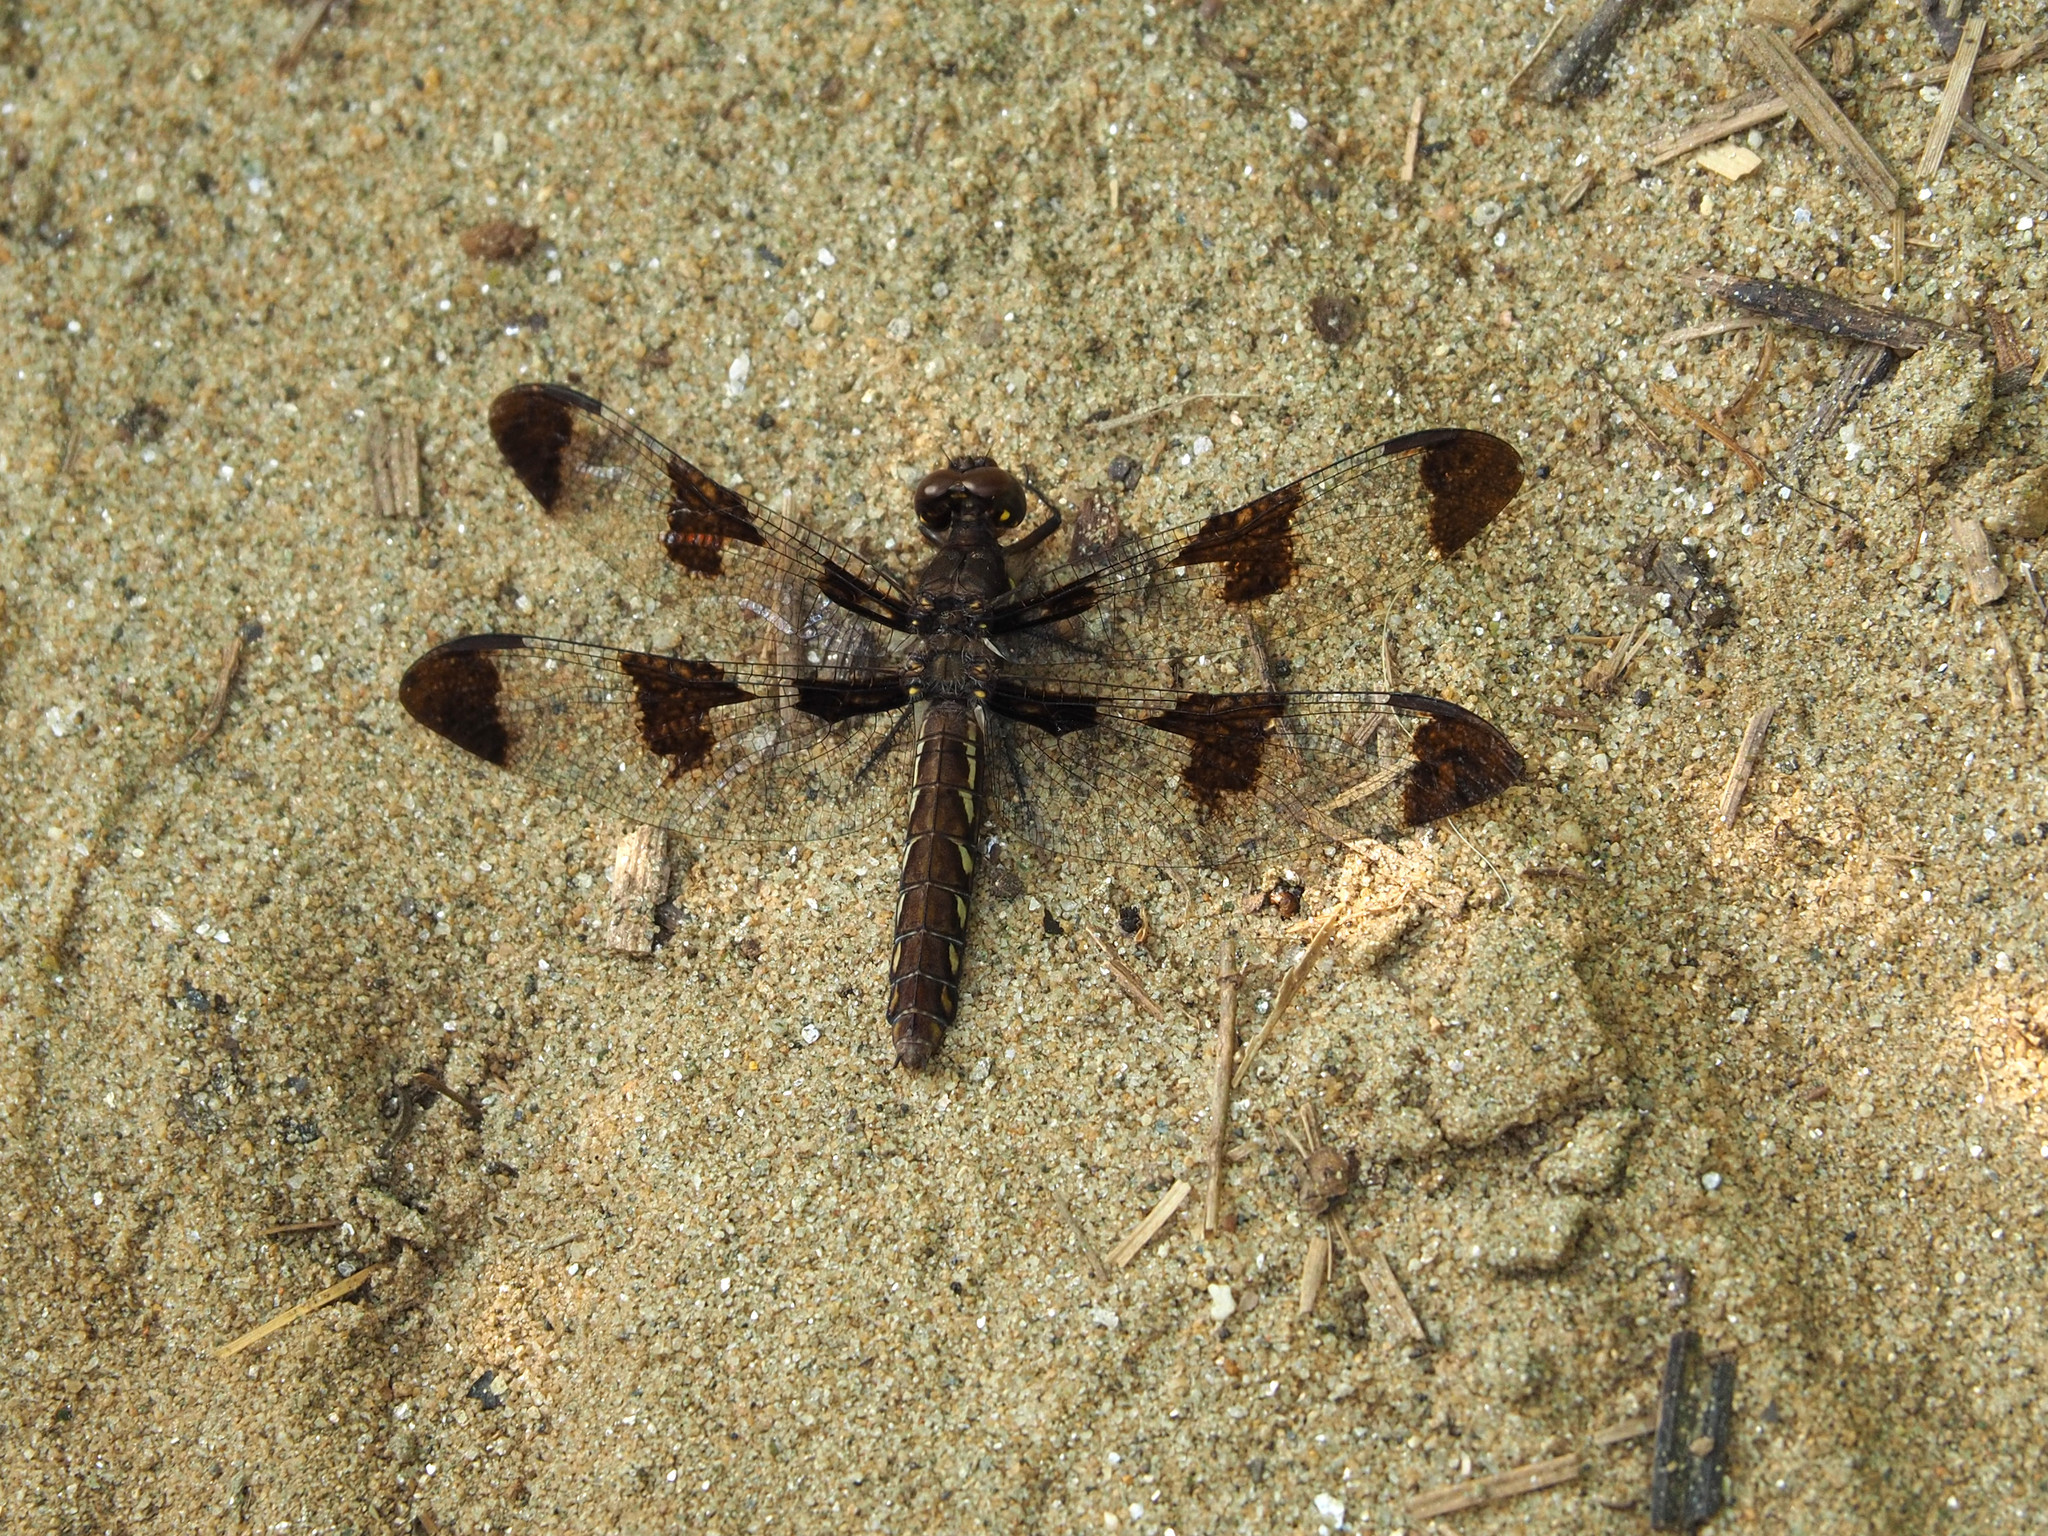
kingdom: Animalia
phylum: Arthropoda
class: Insecta
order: Odonata
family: Libellulidae
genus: Plathemis
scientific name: Plathemis lydia
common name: Common whitetail
